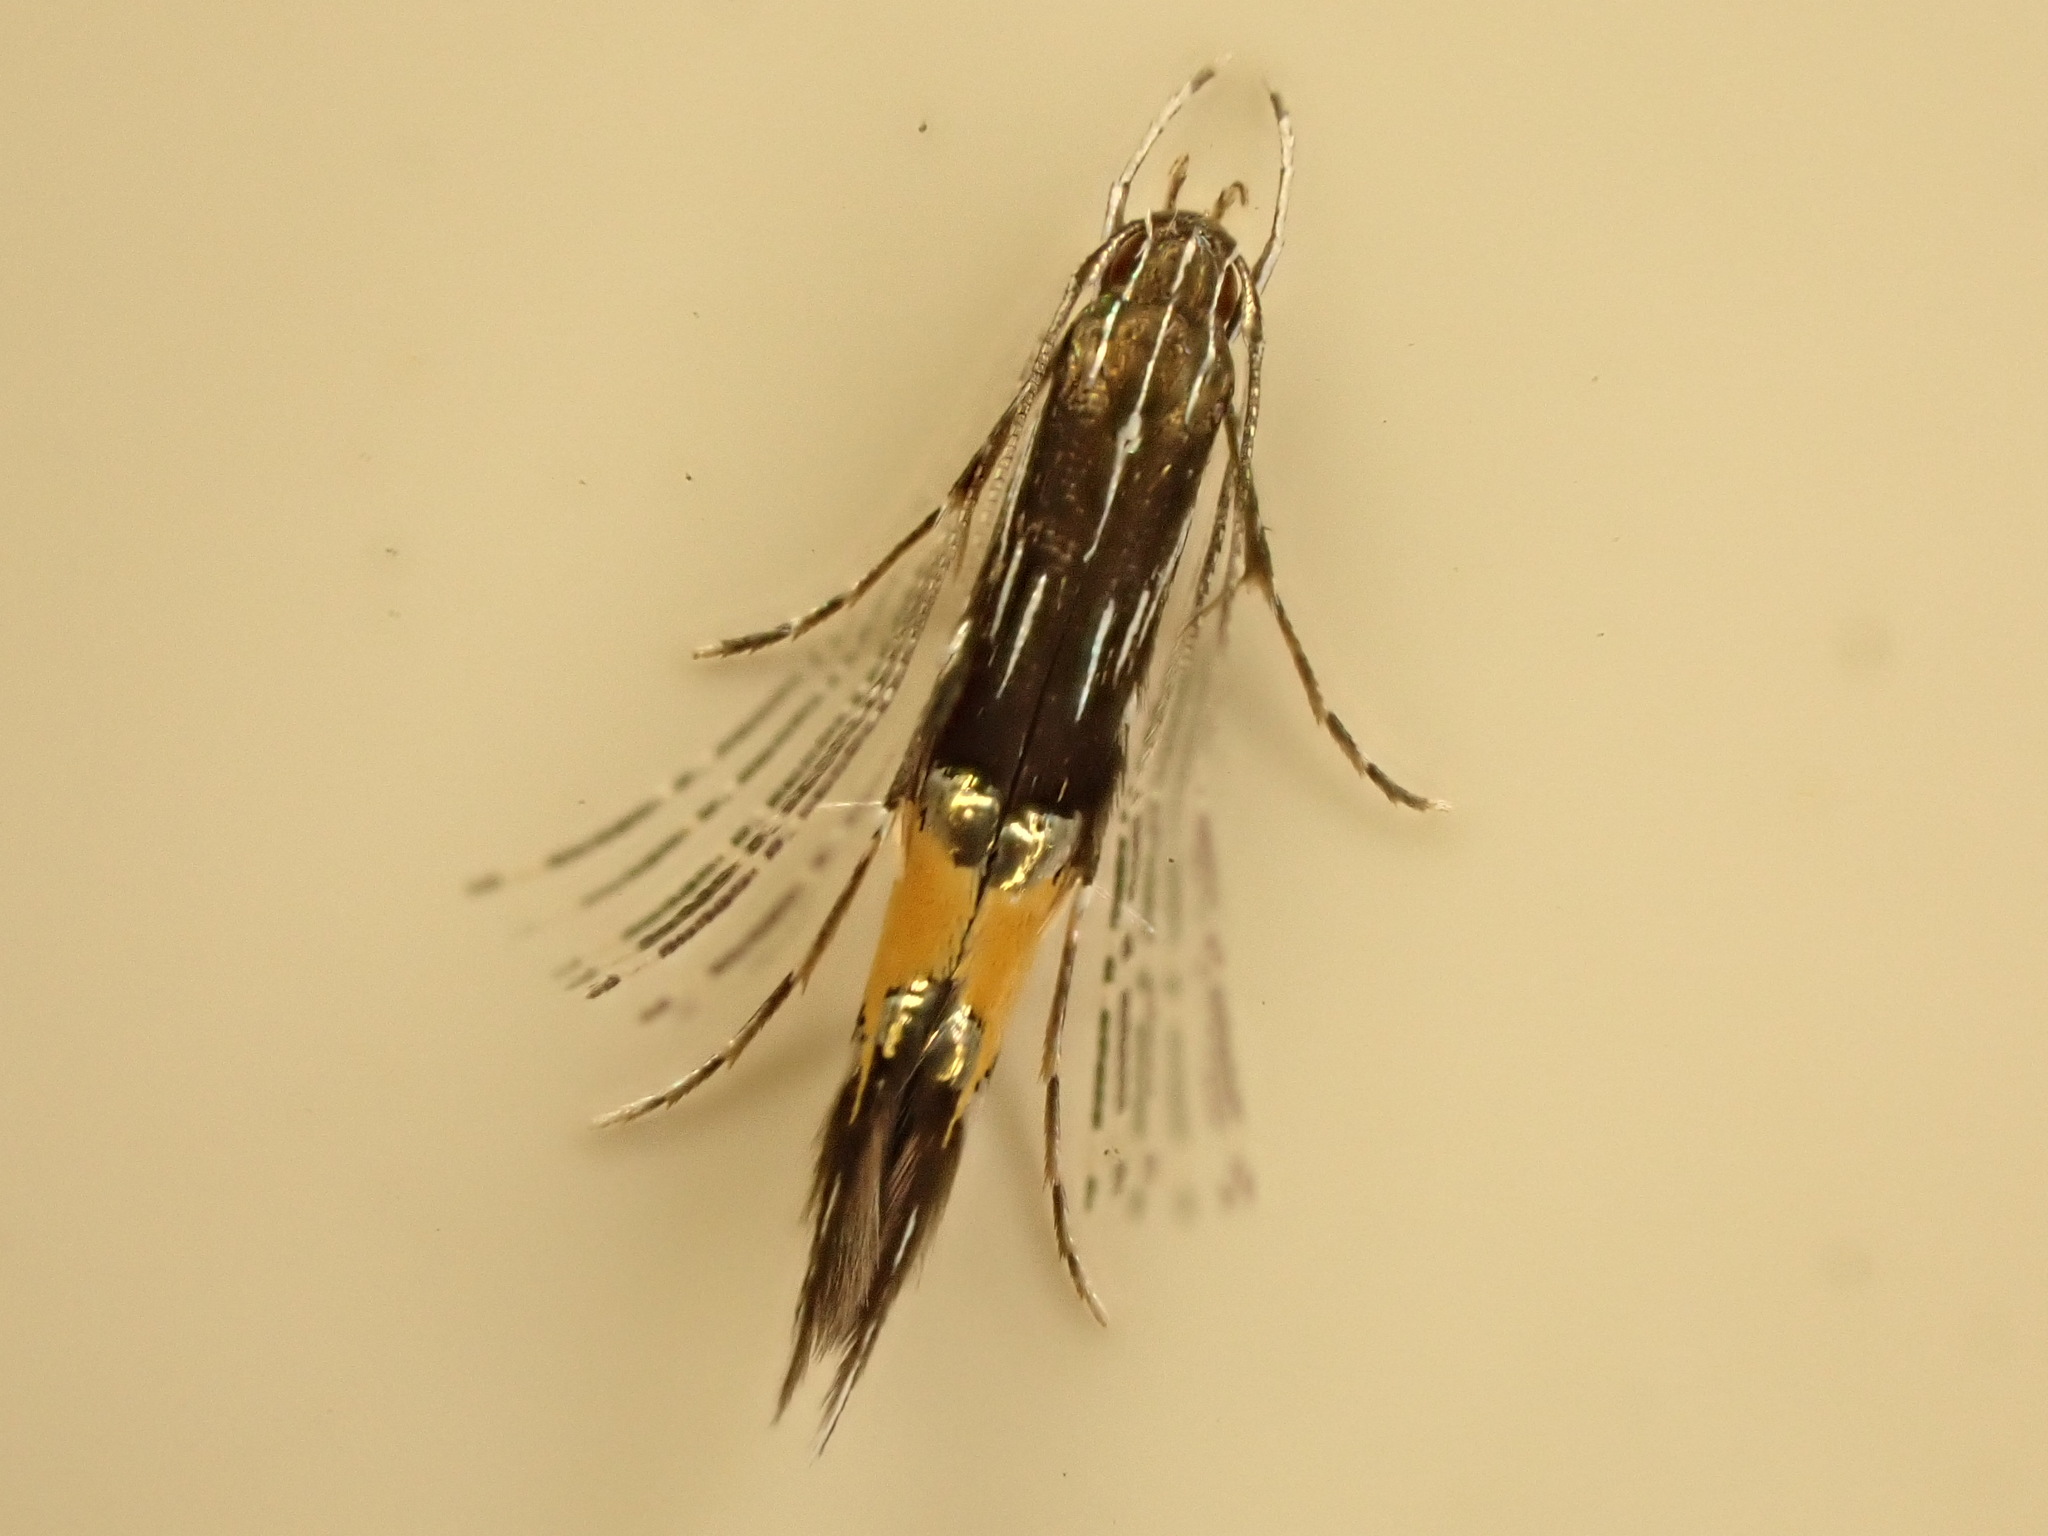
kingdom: Animalia
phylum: Arthropoda
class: Insecta
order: Lepidoptera
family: Cosmopterigidae
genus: Cosmopterix
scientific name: Cosmopterix attenuatella
